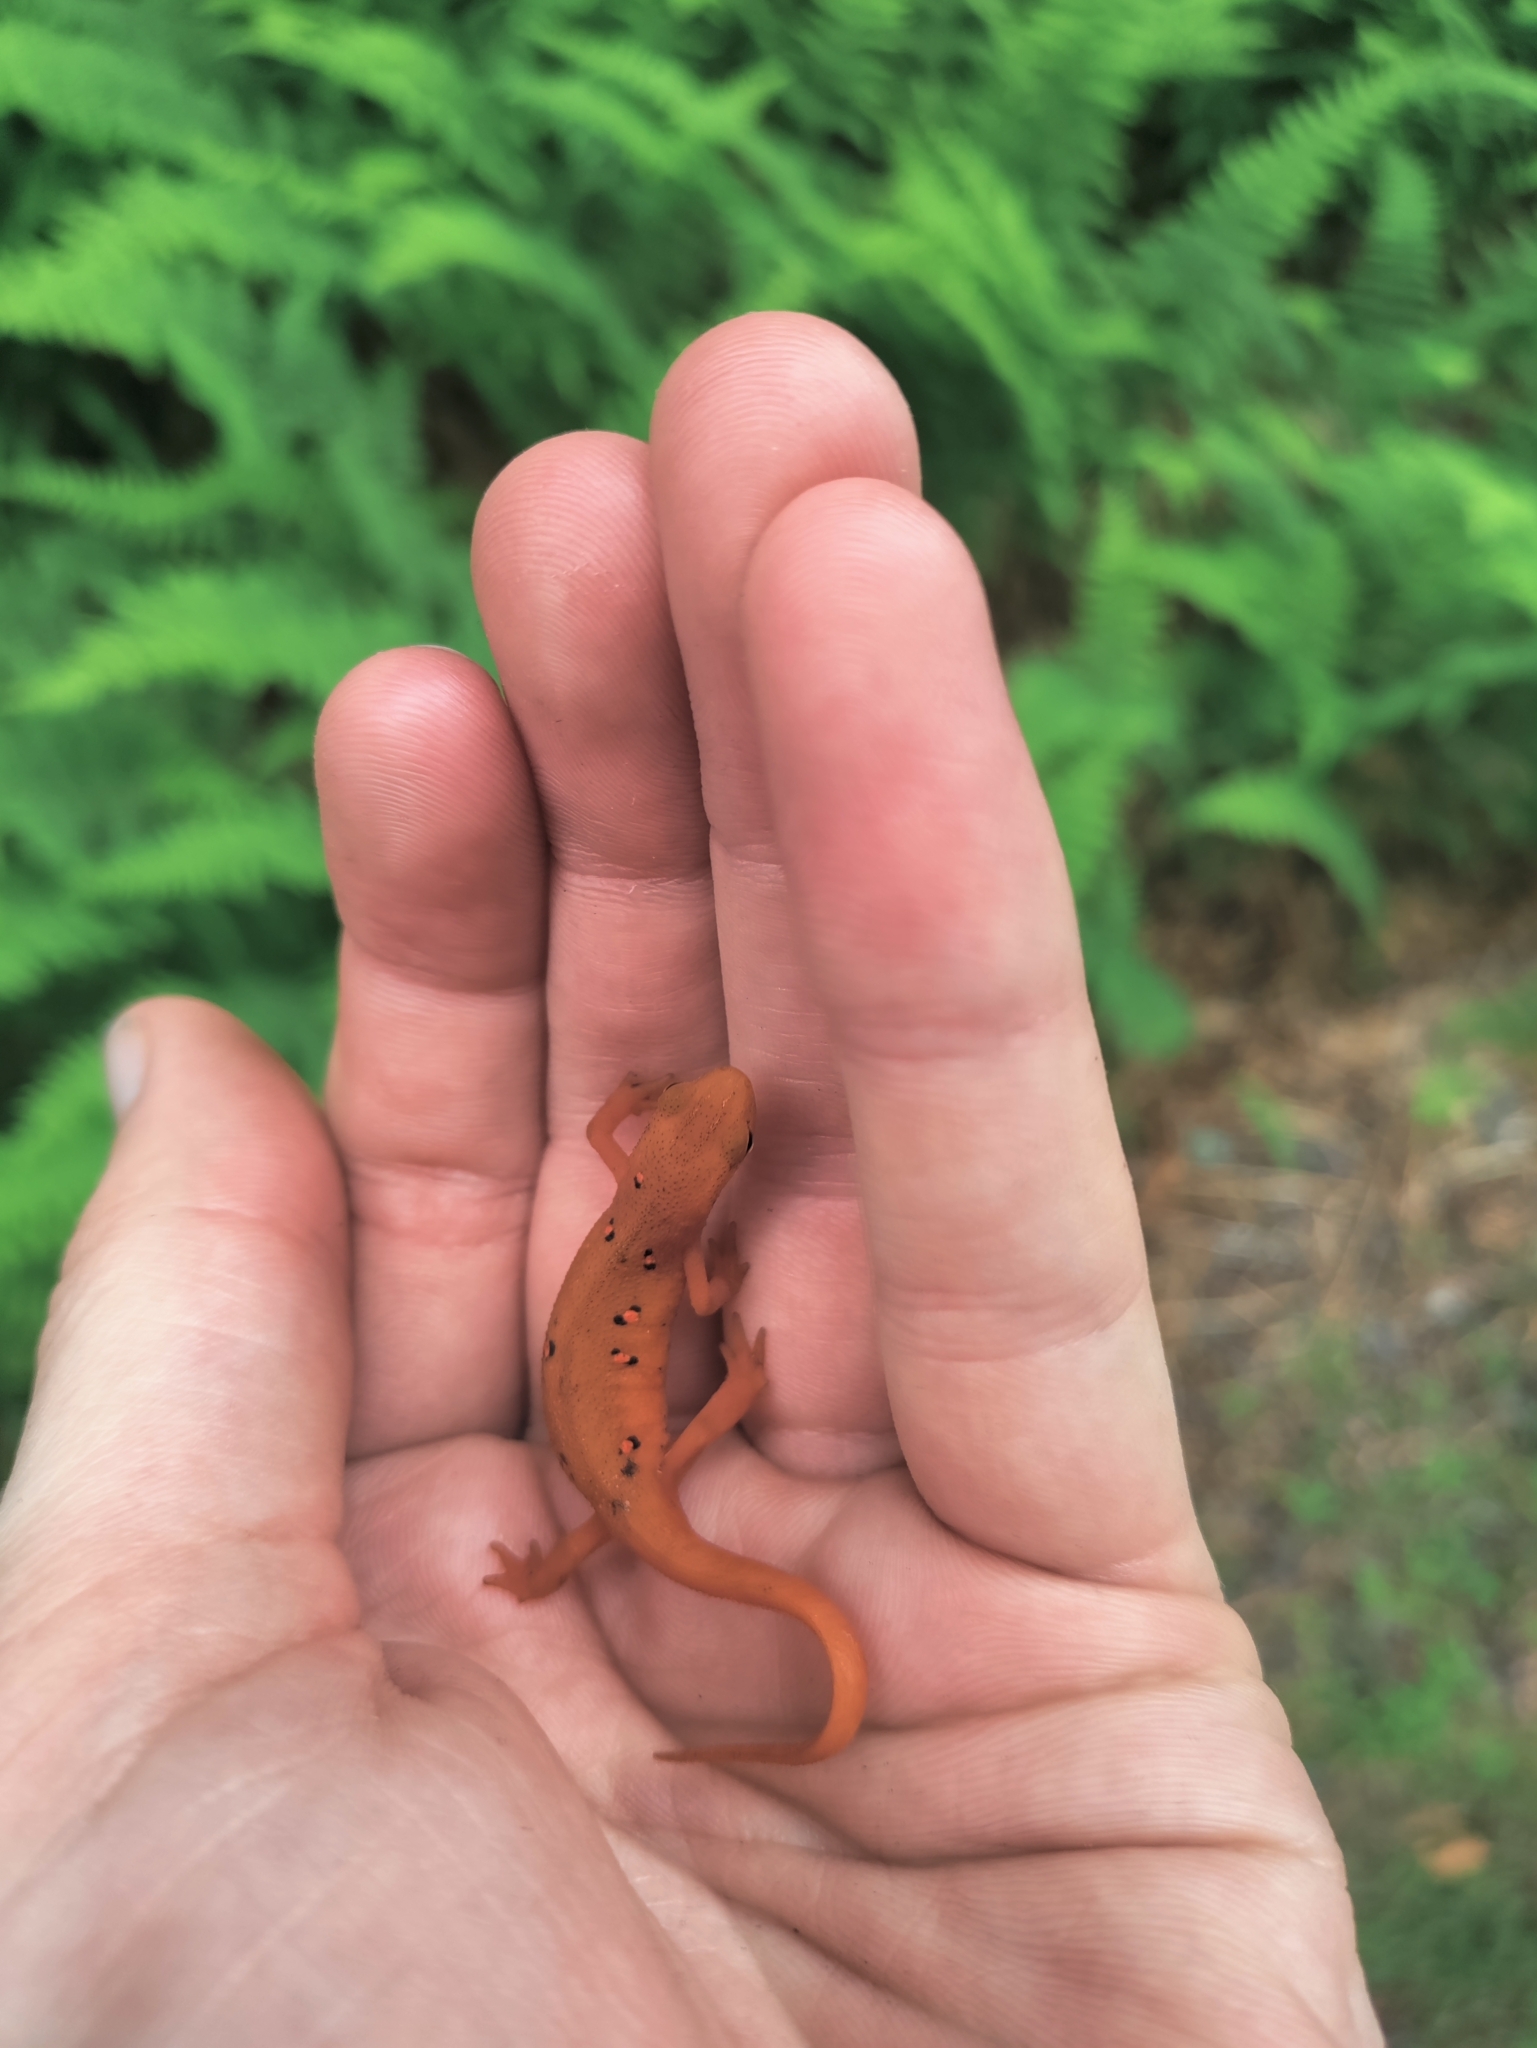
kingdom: Animalia
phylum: Chordata
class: Amphibia
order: Caudata
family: Salamandridae
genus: Notophthalmus
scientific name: Notophthalmus viridescens
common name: Eastern newt
